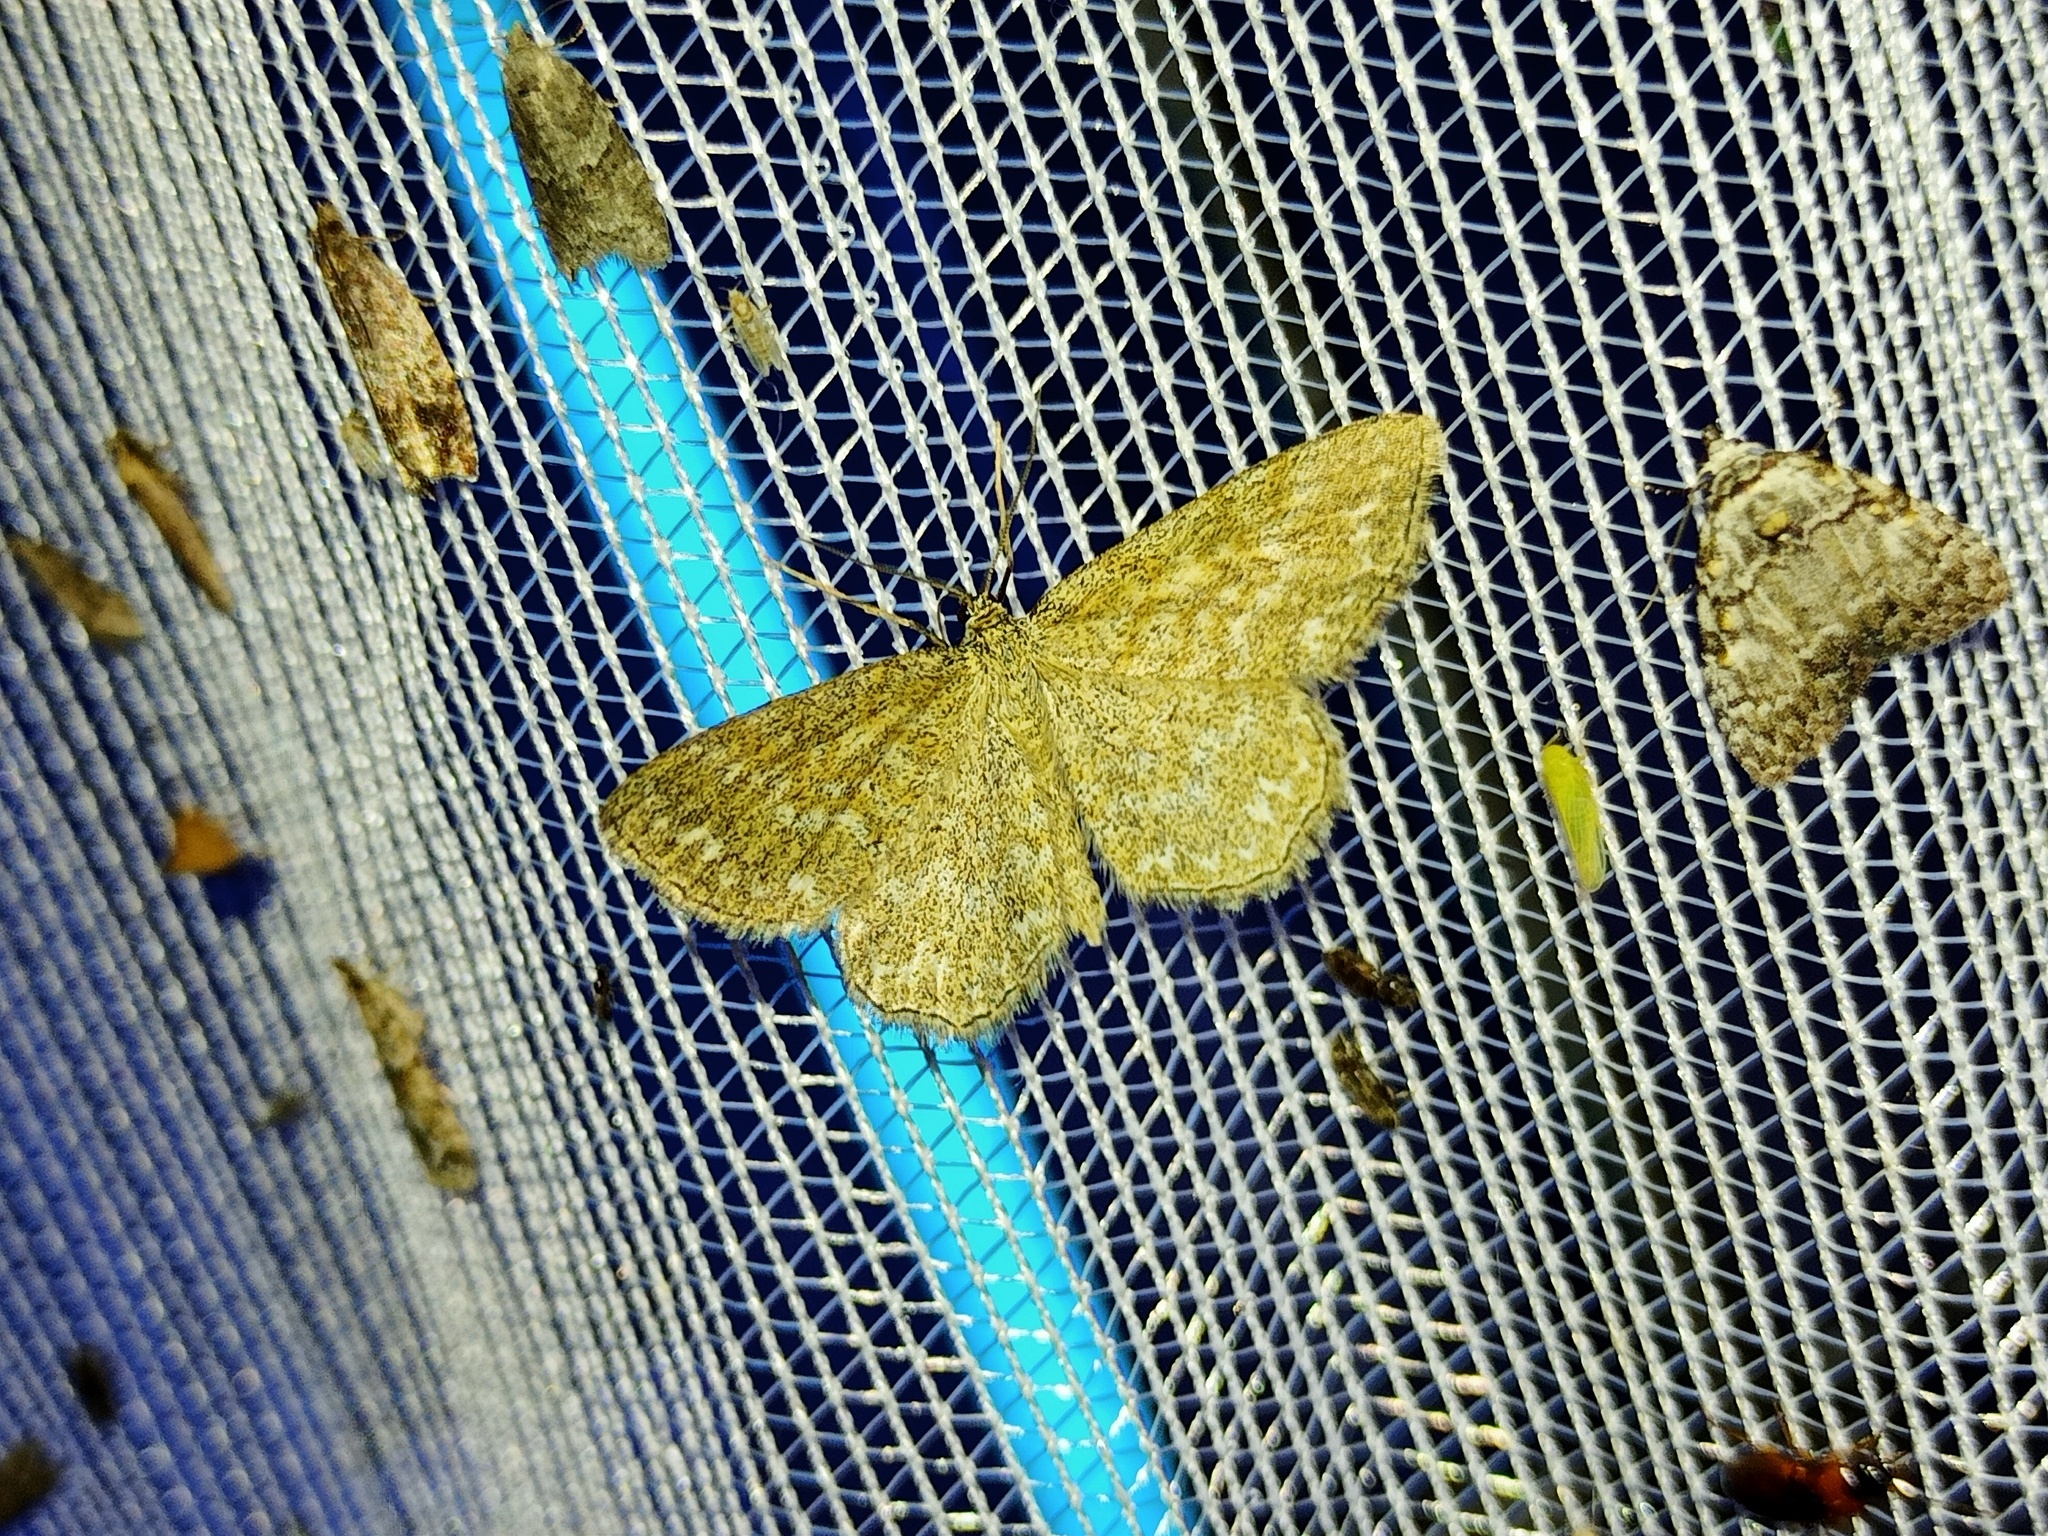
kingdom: Animalia
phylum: Arthropoda
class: Insecta
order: Lepidoptera
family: Geometridae
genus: Scopula
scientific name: Scopula immorata
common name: Lewes wave
